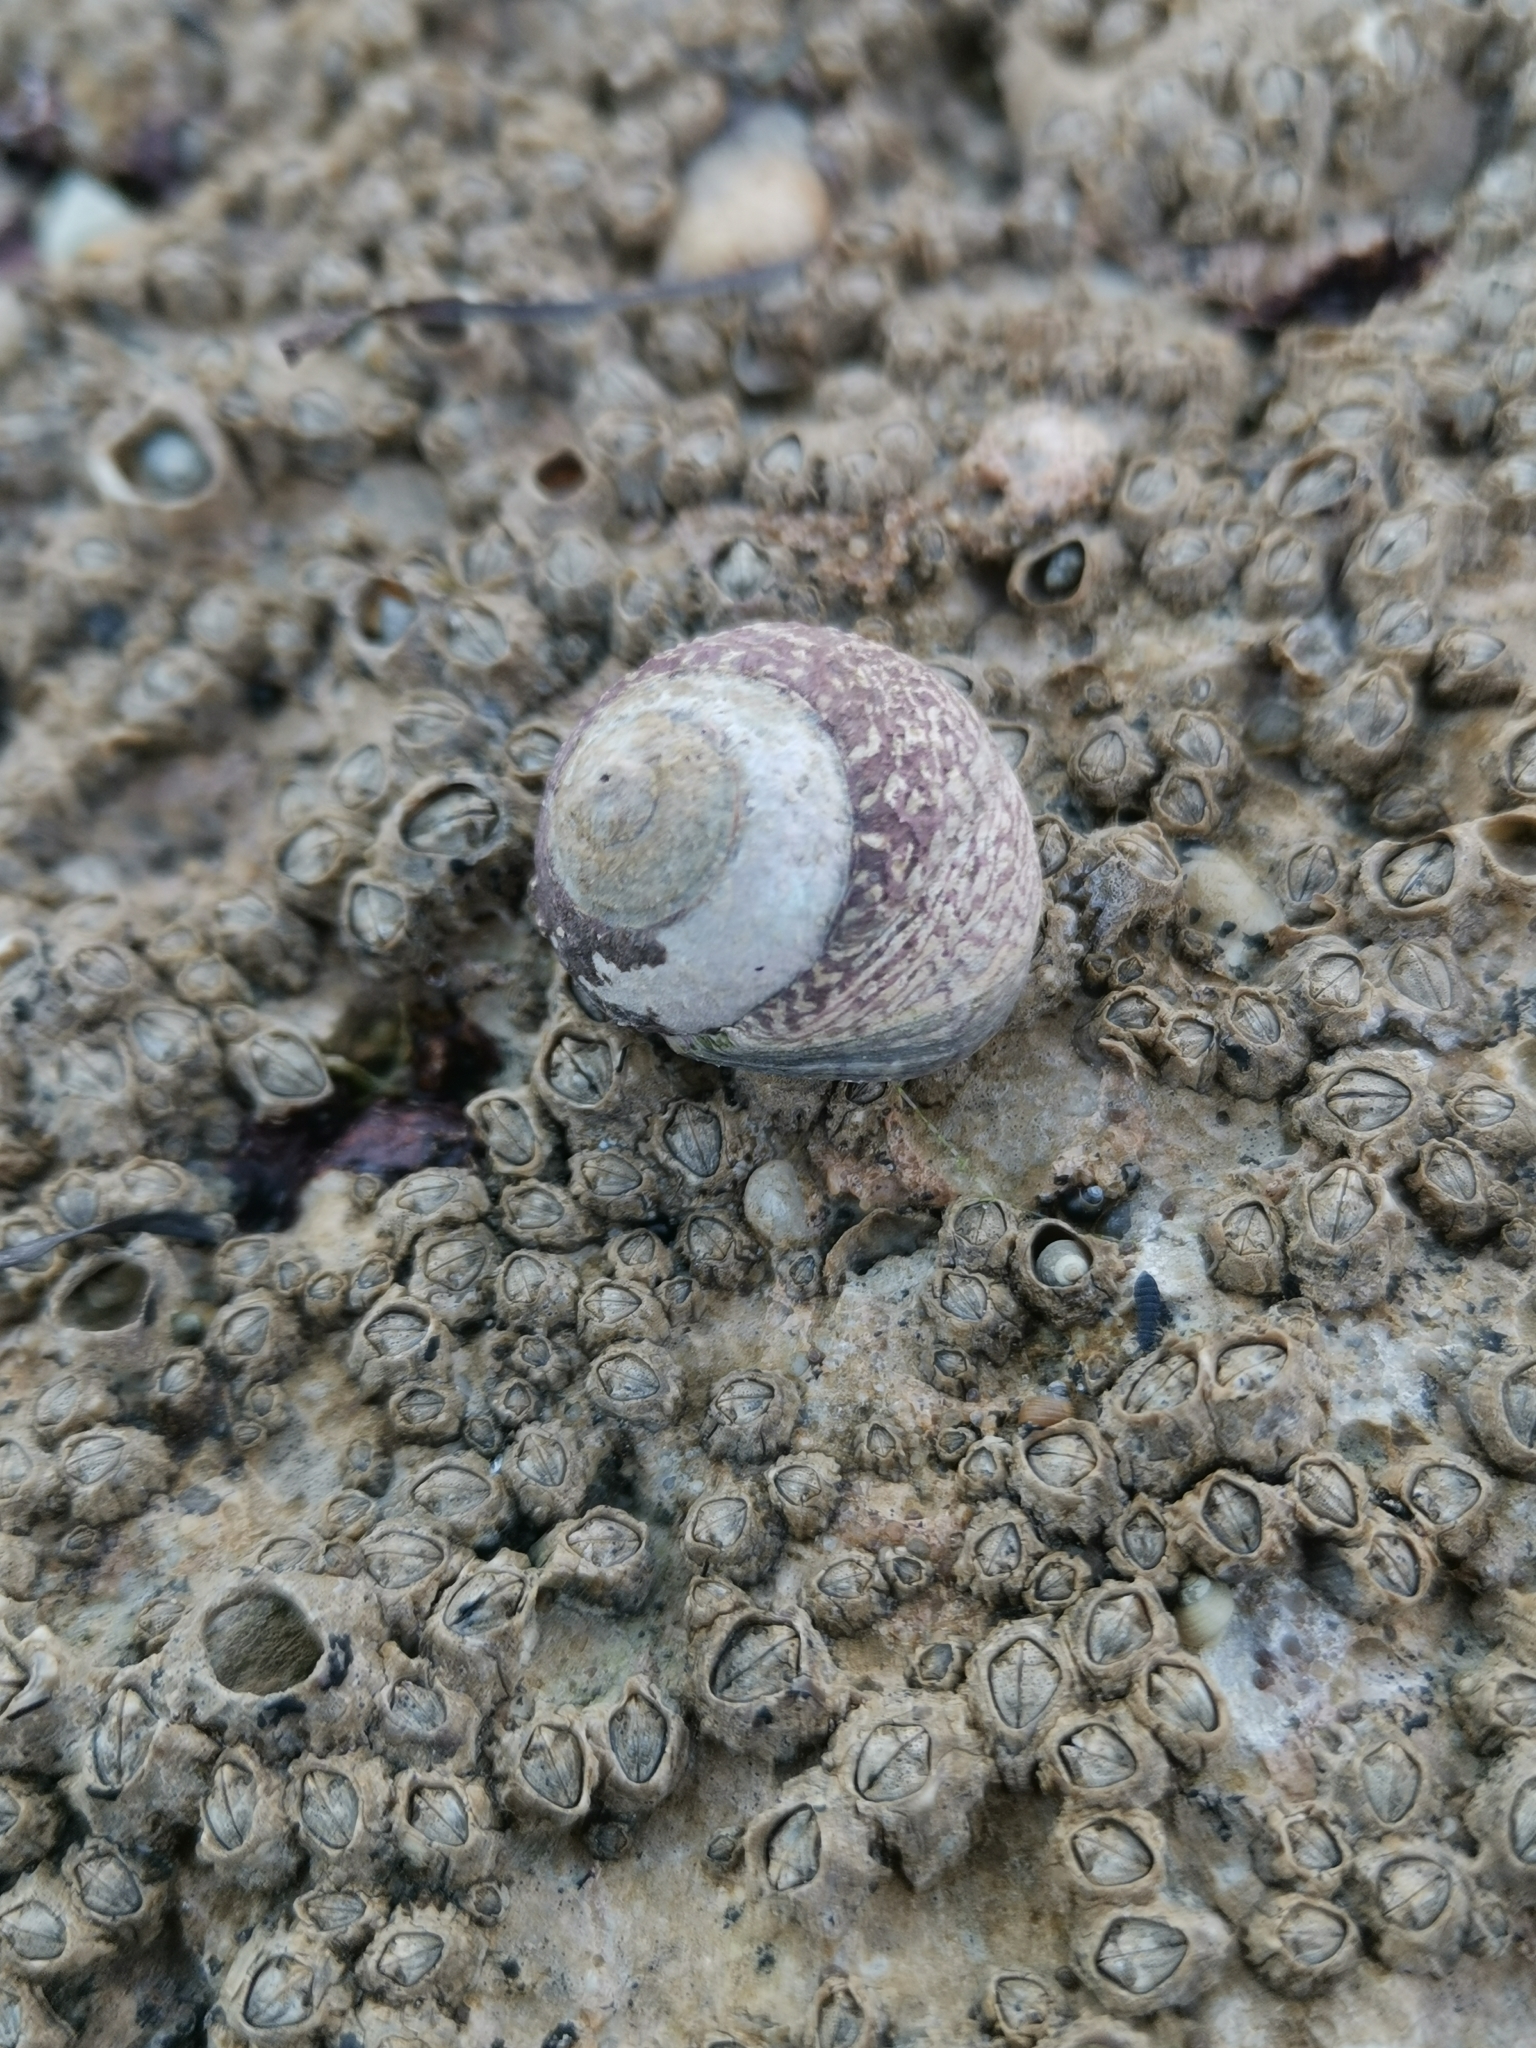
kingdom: Animalia
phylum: Mollusca
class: Gastropoda
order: Trochida
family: Trochidae
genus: Phorcus
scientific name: Phorcus lineatus
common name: Toothed top shell
